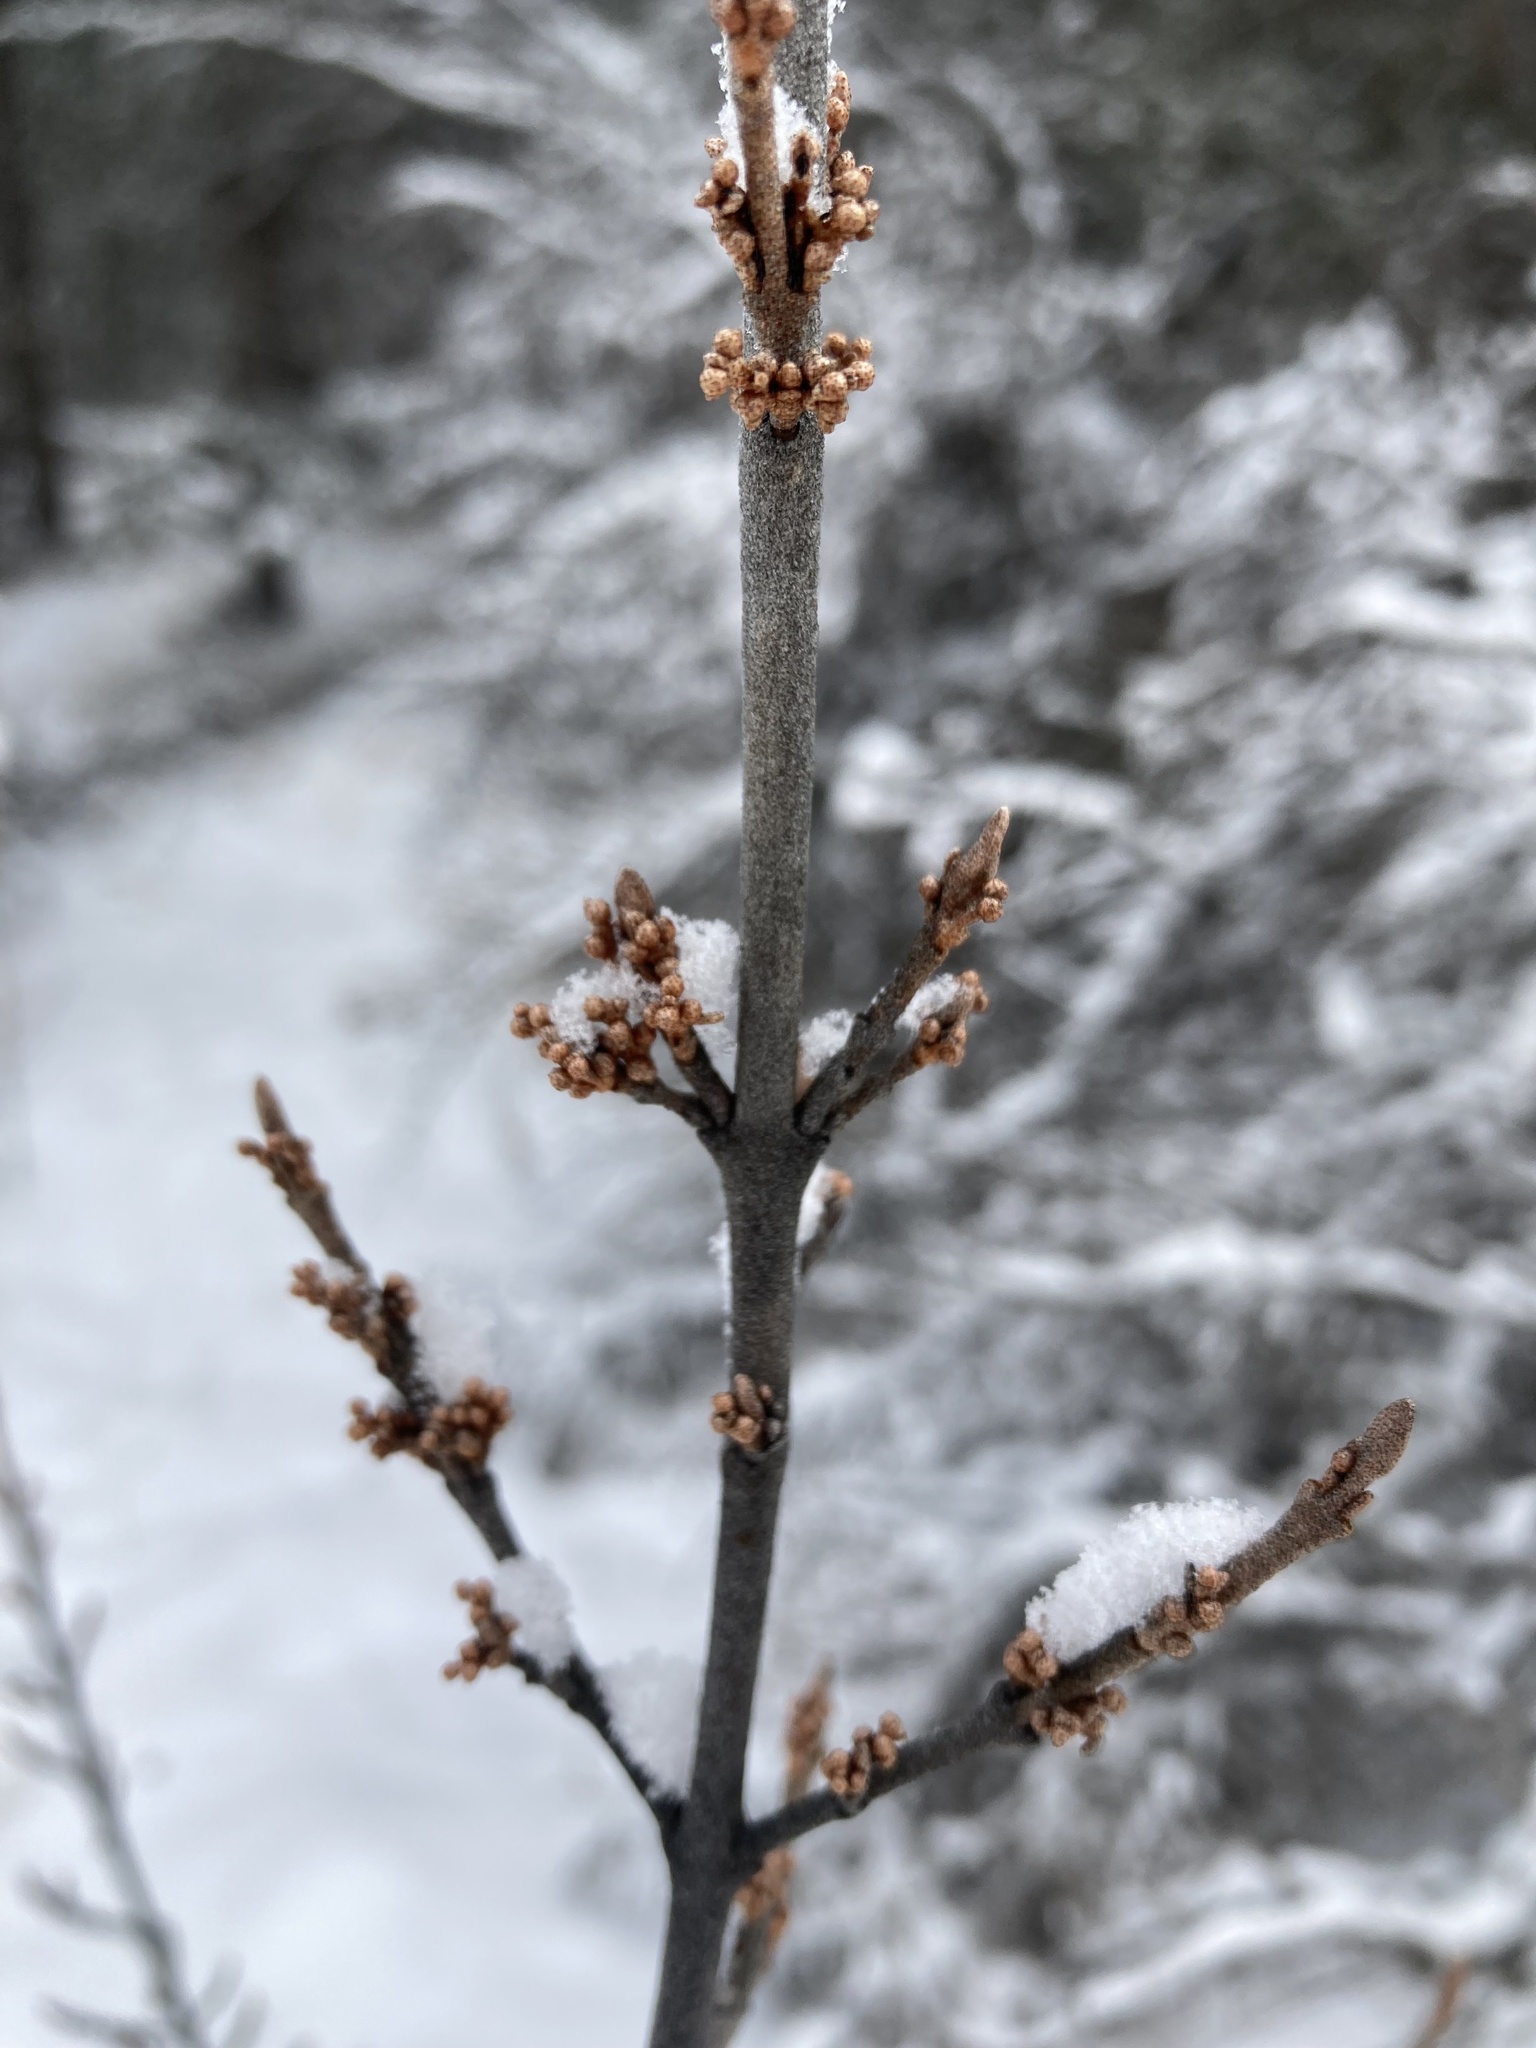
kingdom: Plantae
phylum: Tracheophyta
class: Magnoliopsida
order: Rosales
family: Elaeagnaceae
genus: Shepherdia
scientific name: Shepherdia canadensis
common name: Soapberry
